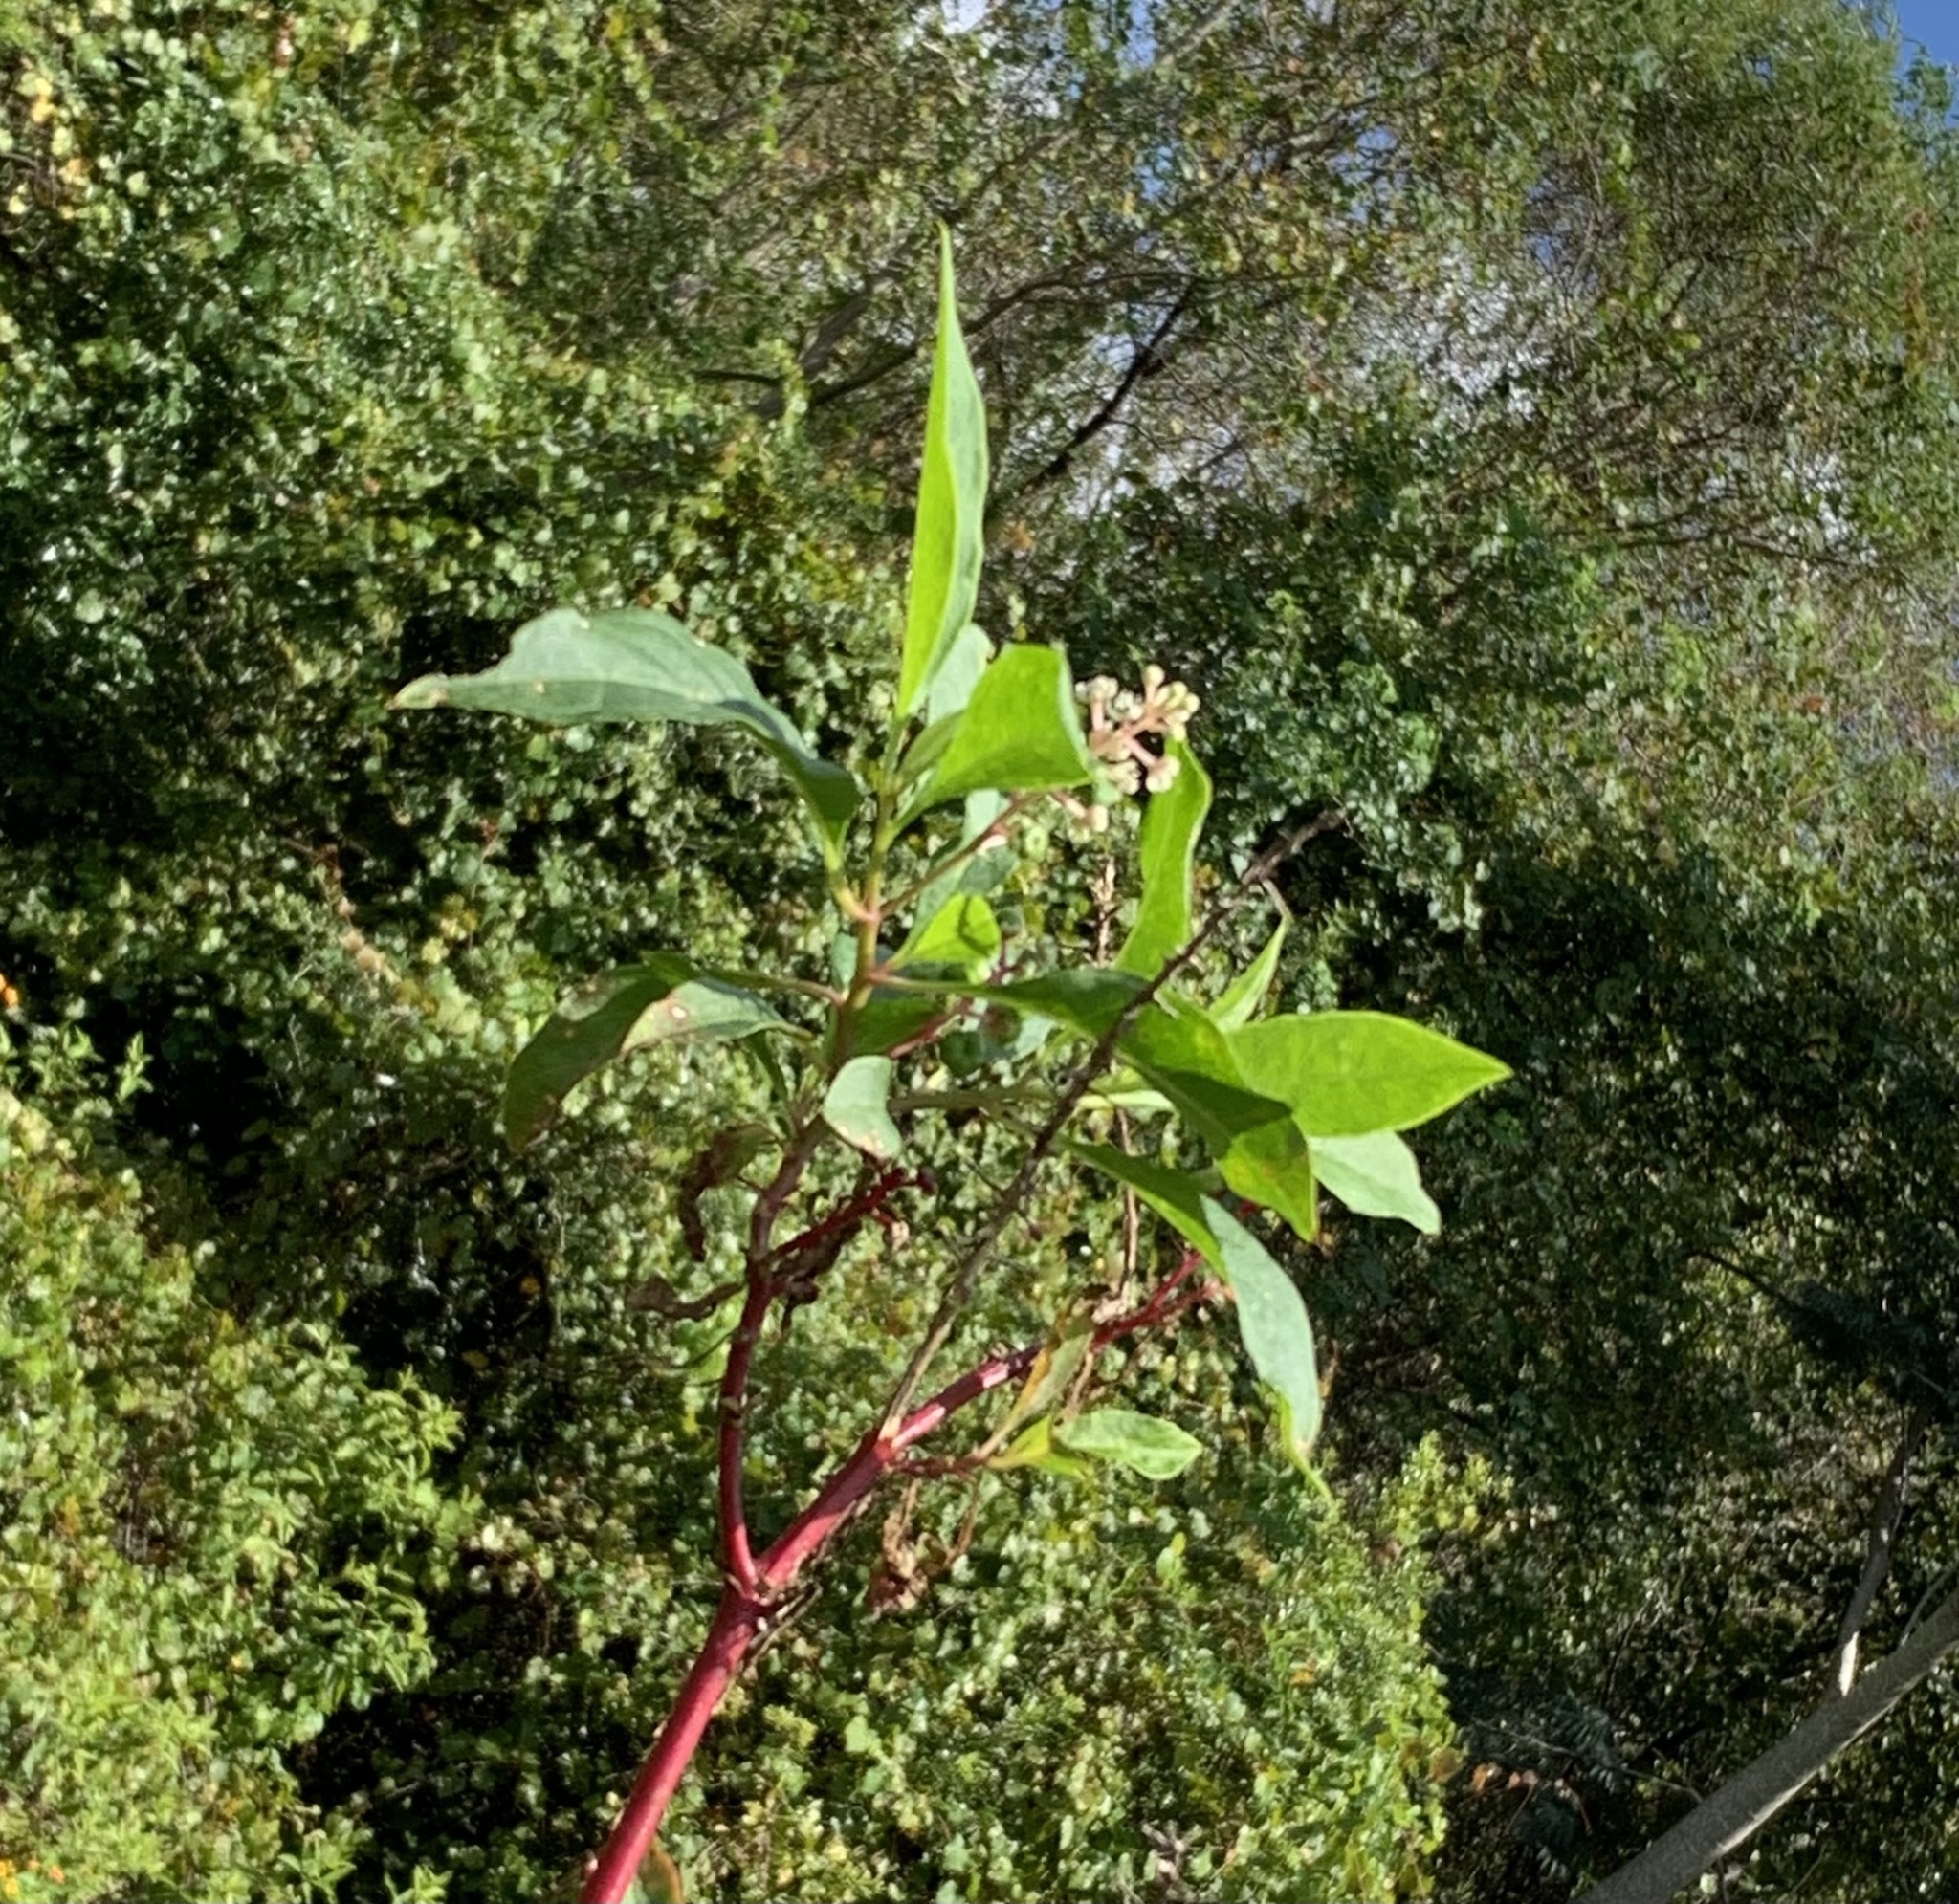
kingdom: Plantae
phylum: Tracheophyta
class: Magnoliopsida
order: Caryophyllales
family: Phytolaccaceae
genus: Phytolacca
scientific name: Phytolacca americana
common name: American pokeweed
